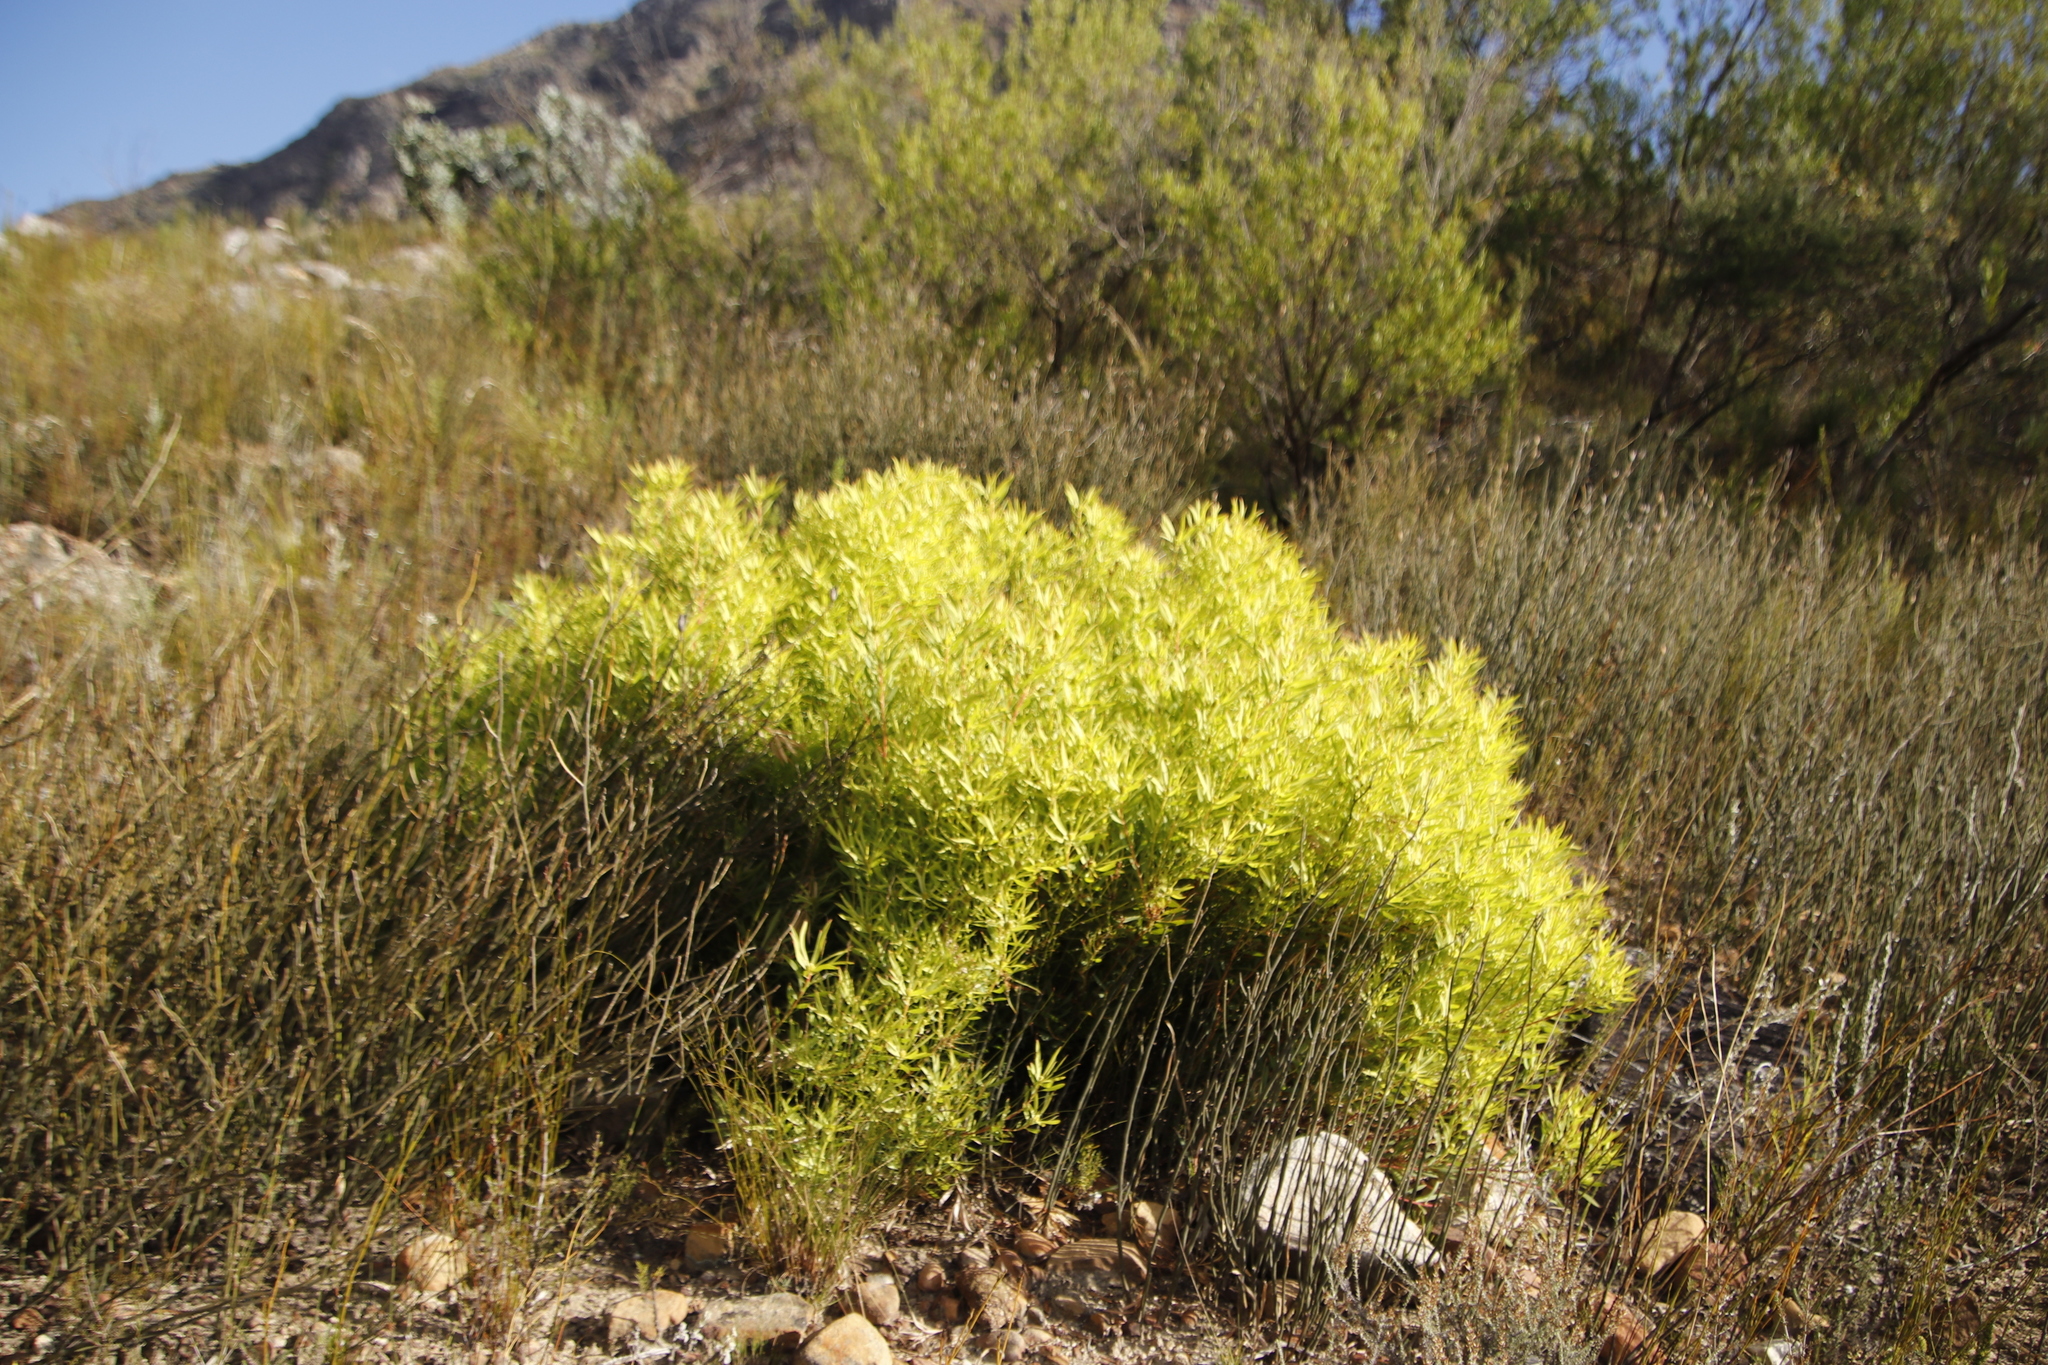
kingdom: Plantae
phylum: Tracheophyta
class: Magnoliopsida
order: Proteales
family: Proteaceae
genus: Leucadendron
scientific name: Leucadendron salignum
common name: Common sunshine conebush
